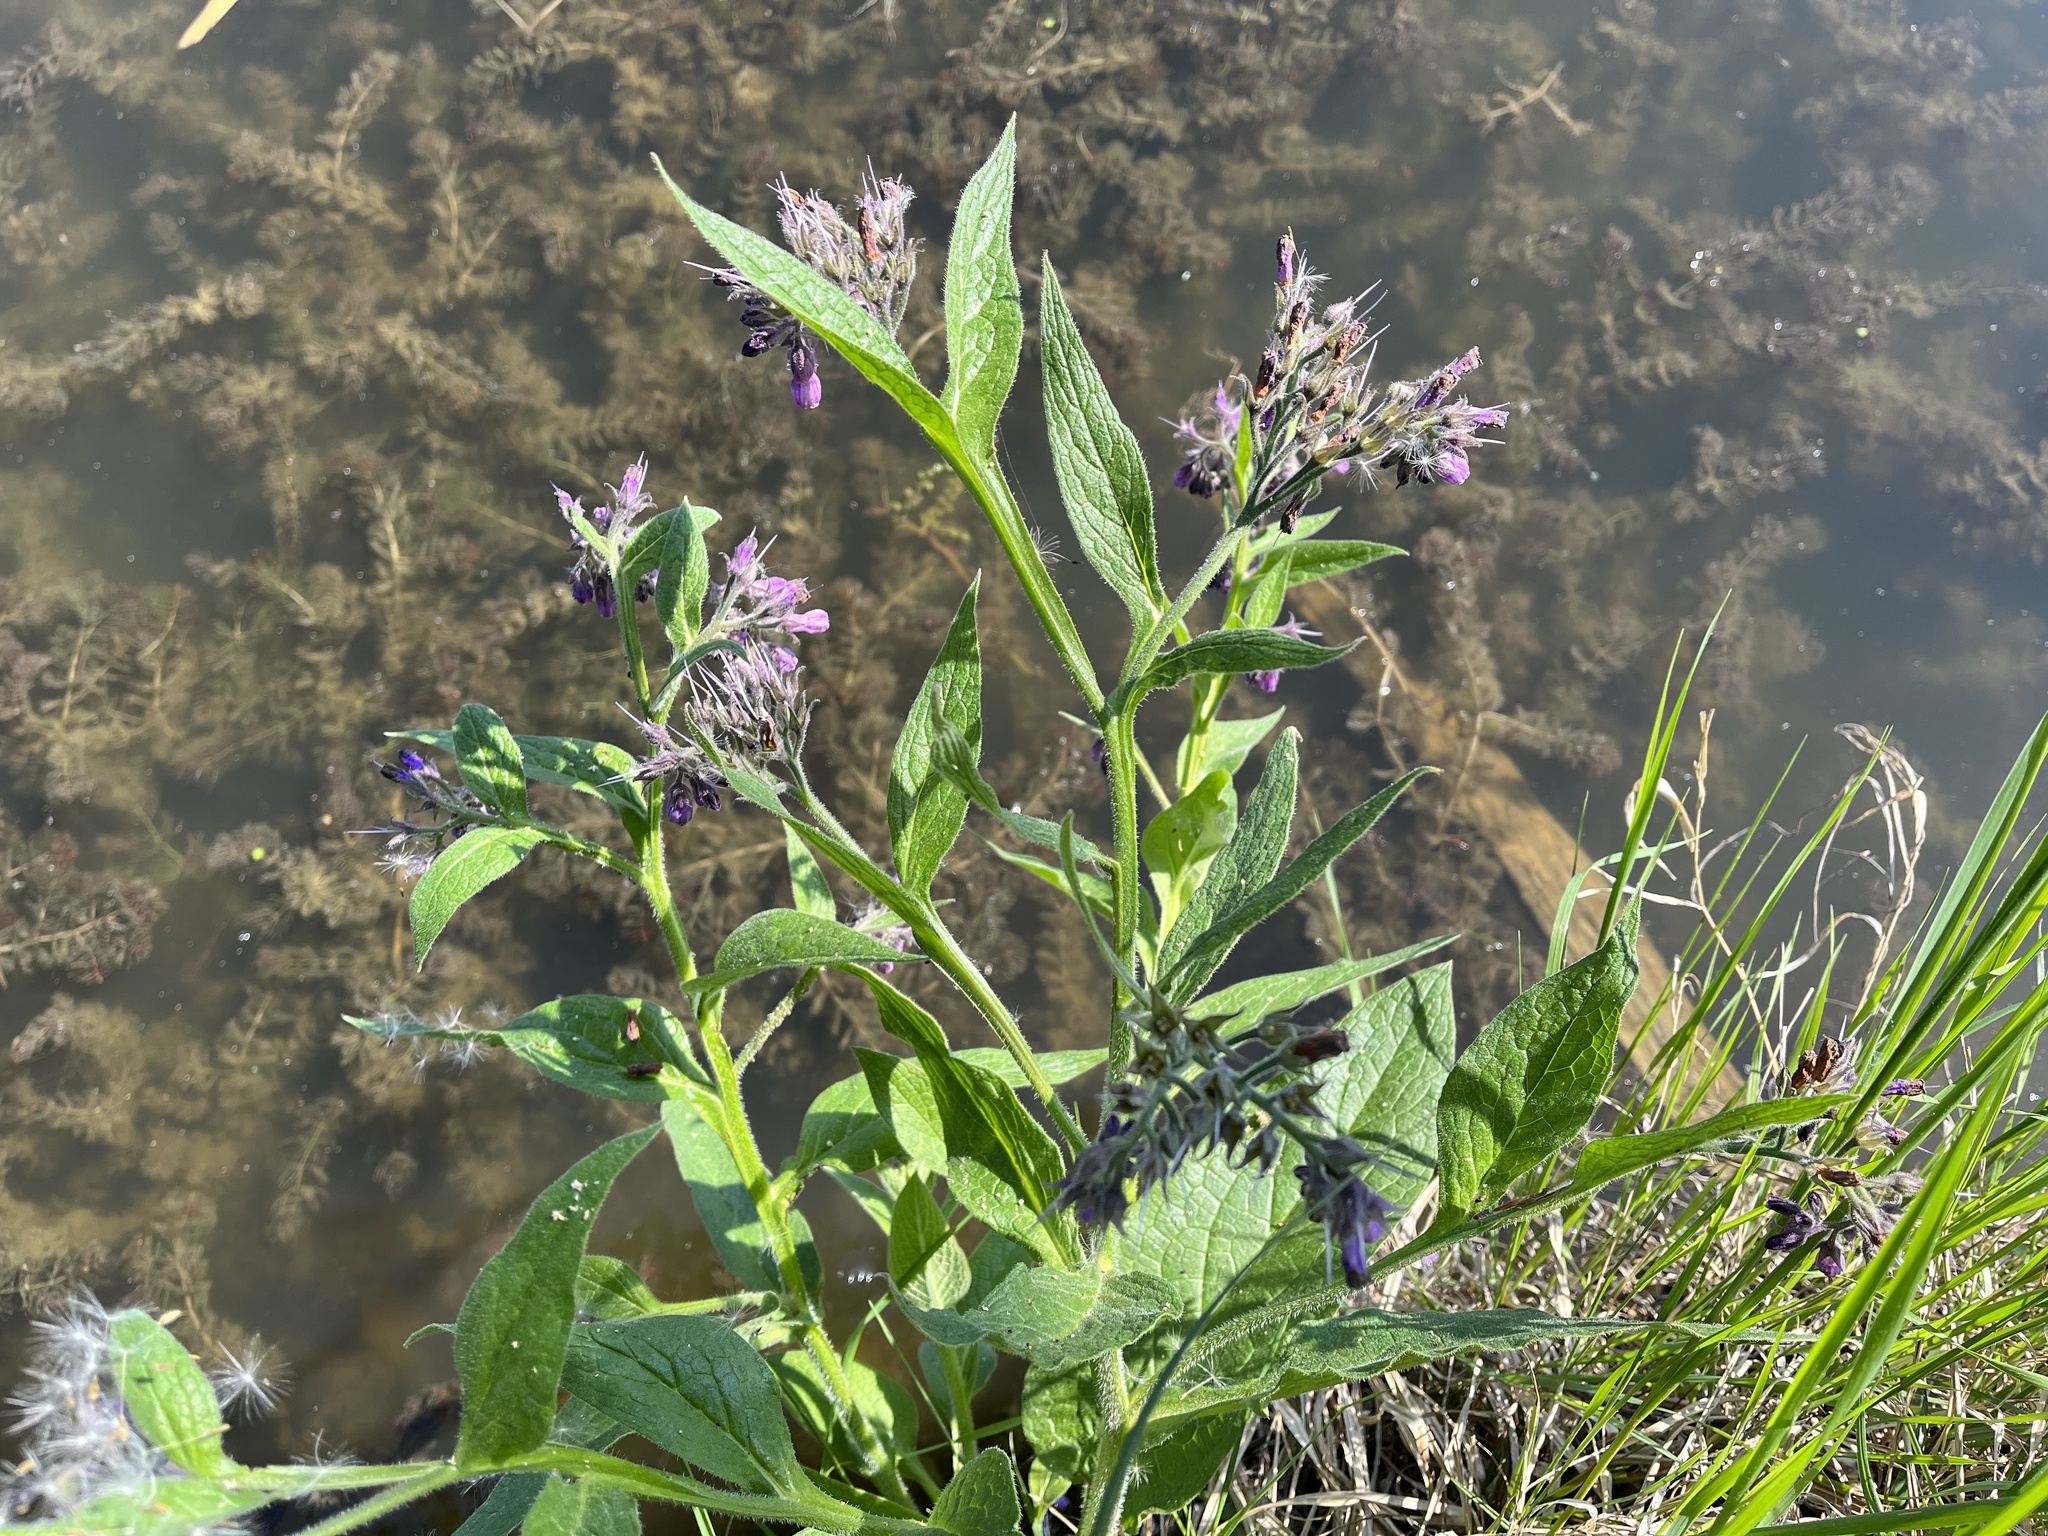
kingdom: Plantae
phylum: Tracheophyta
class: Magnoliopsida
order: Boraginales
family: Boraginaceae
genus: Symphytum
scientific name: Symphytum officinale
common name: Common comfrey
